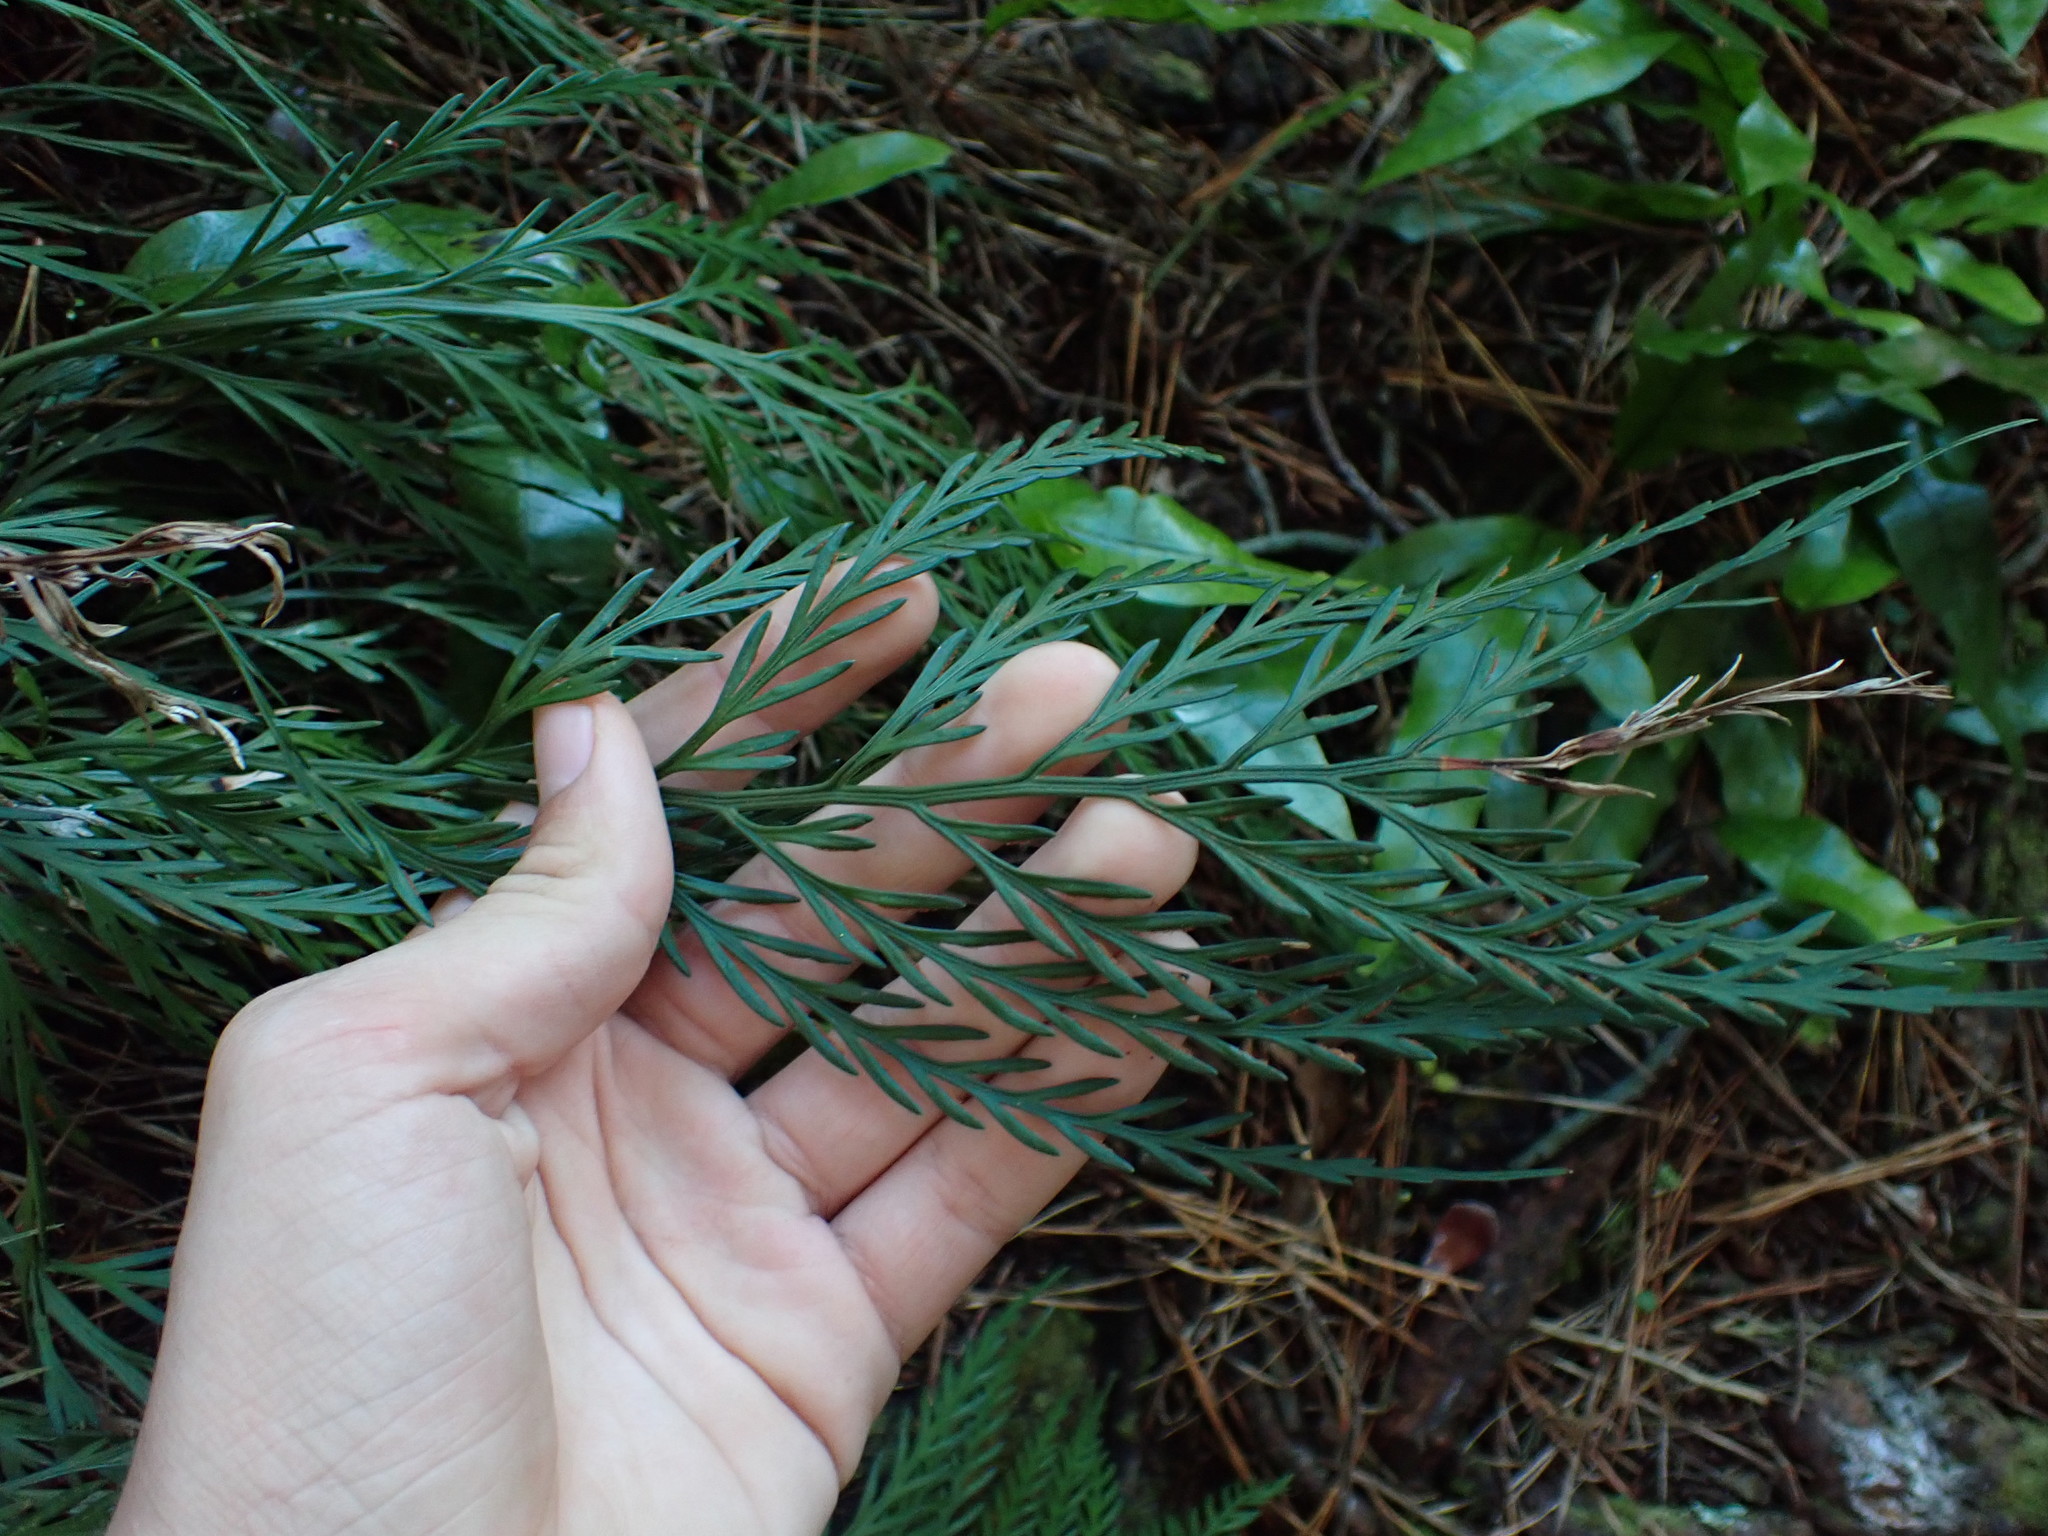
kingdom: Plantae
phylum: Tracheophyta
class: Polypodiopsida
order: Polypodiales
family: Aspleniaceae
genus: Asplenium
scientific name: Asplenium flaccidum
